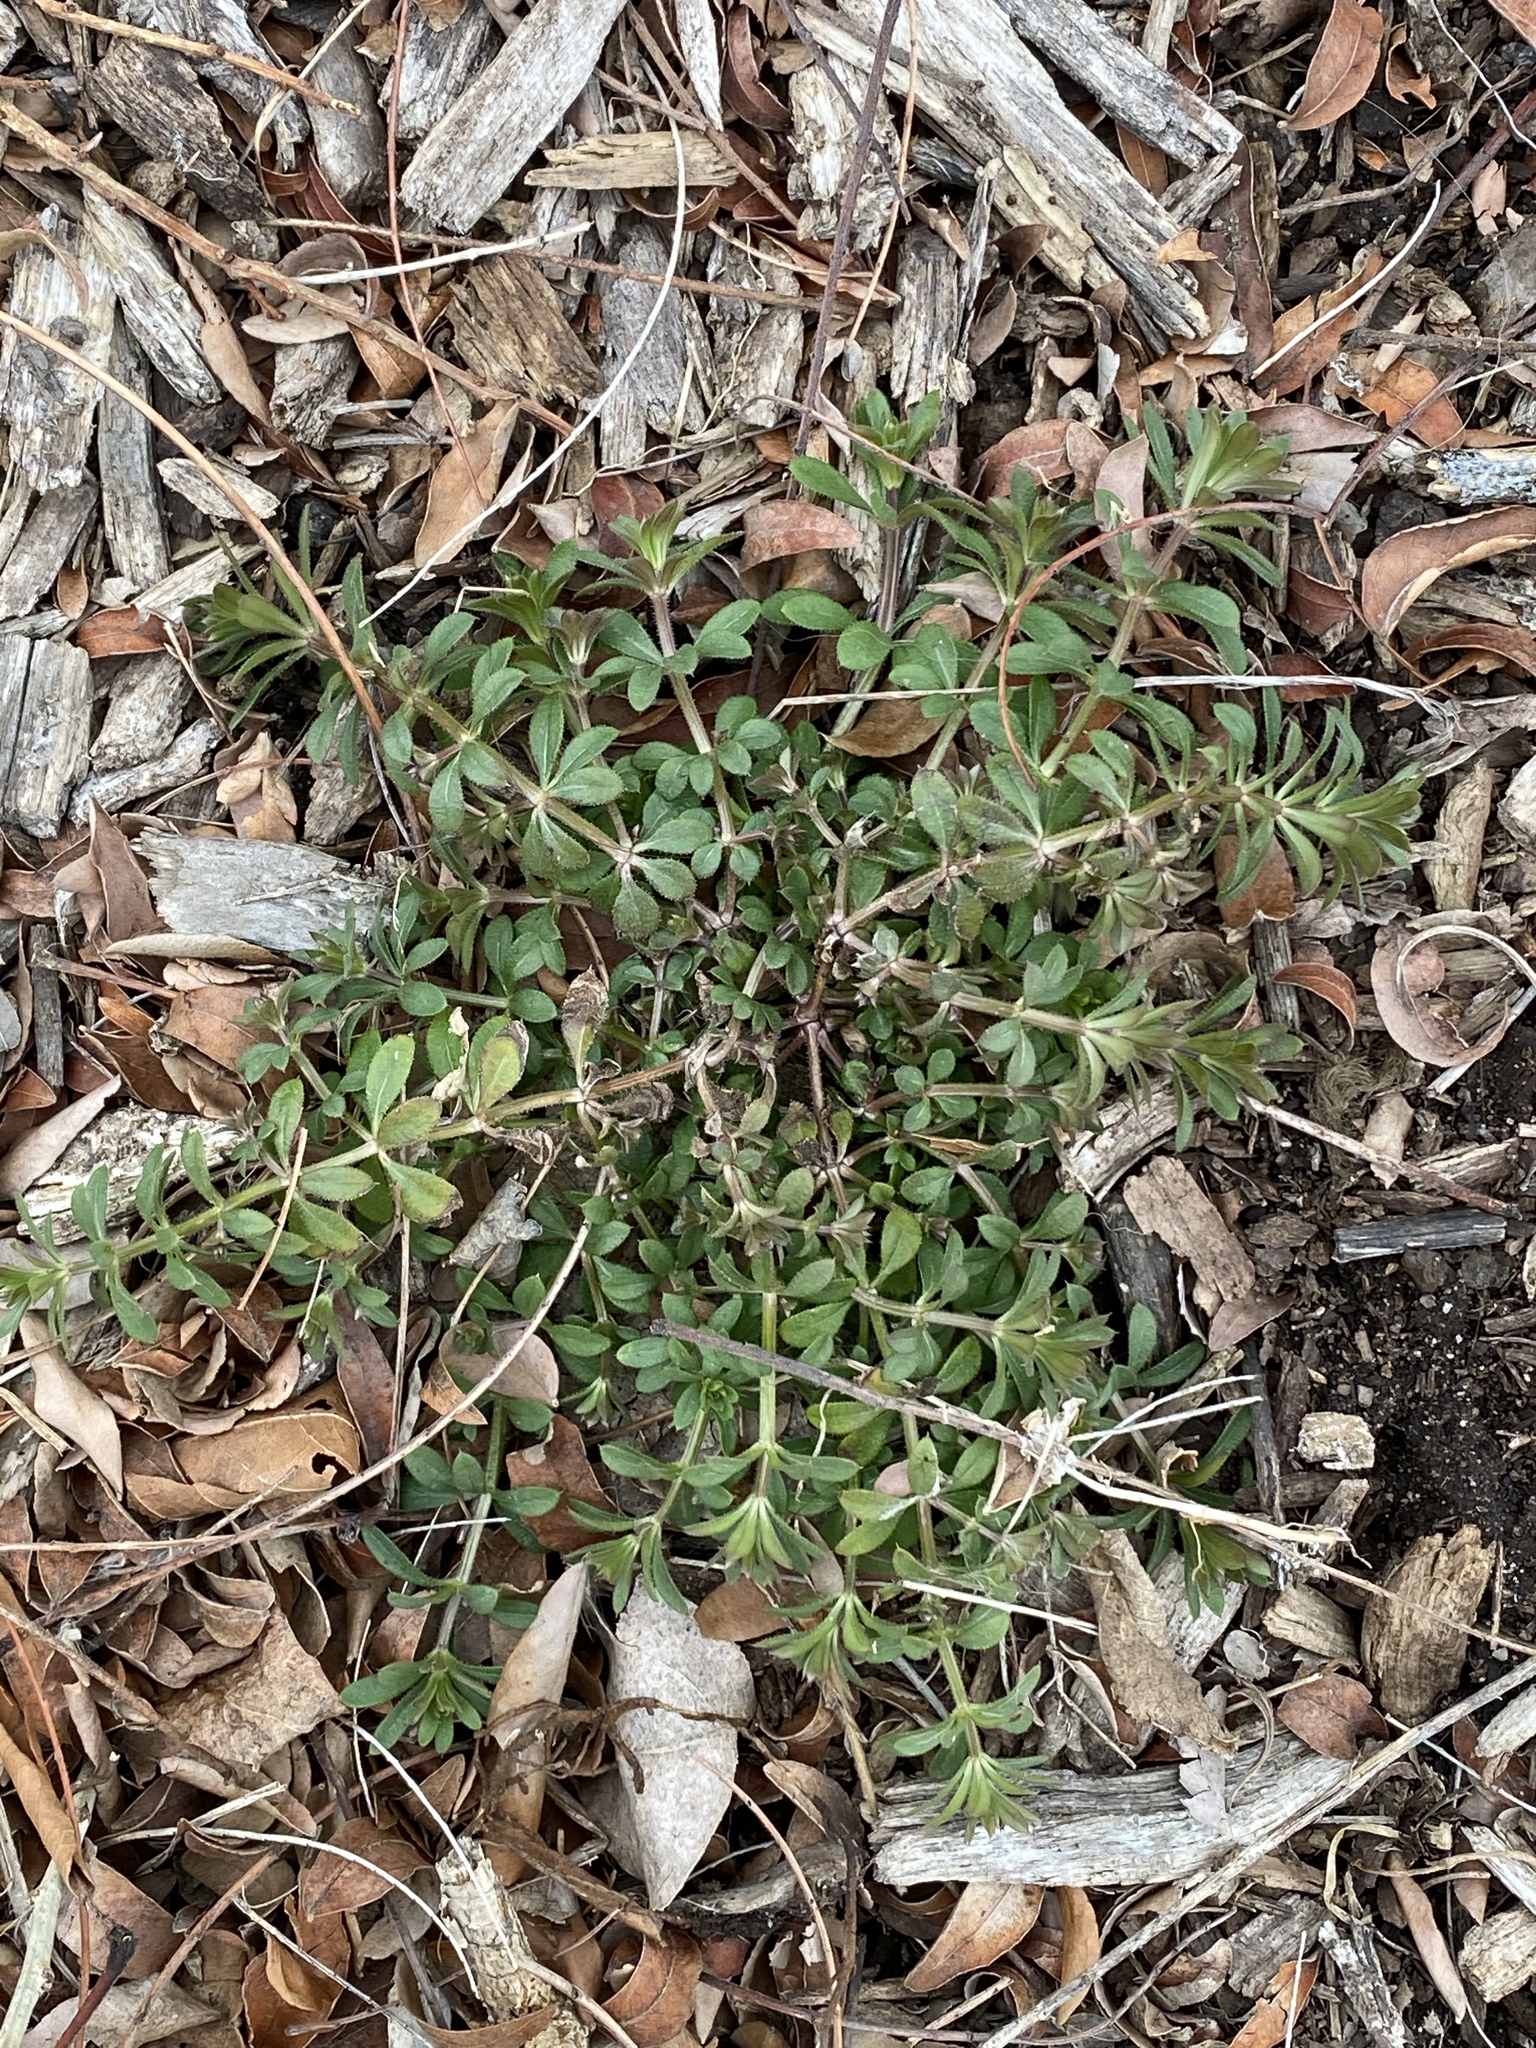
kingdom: Plantae
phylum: Tracheophyta
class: Magnoliopsida
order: Gentianales
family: Rubiaceae
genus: Galium
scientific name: Galium aparine
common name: Cleavers
